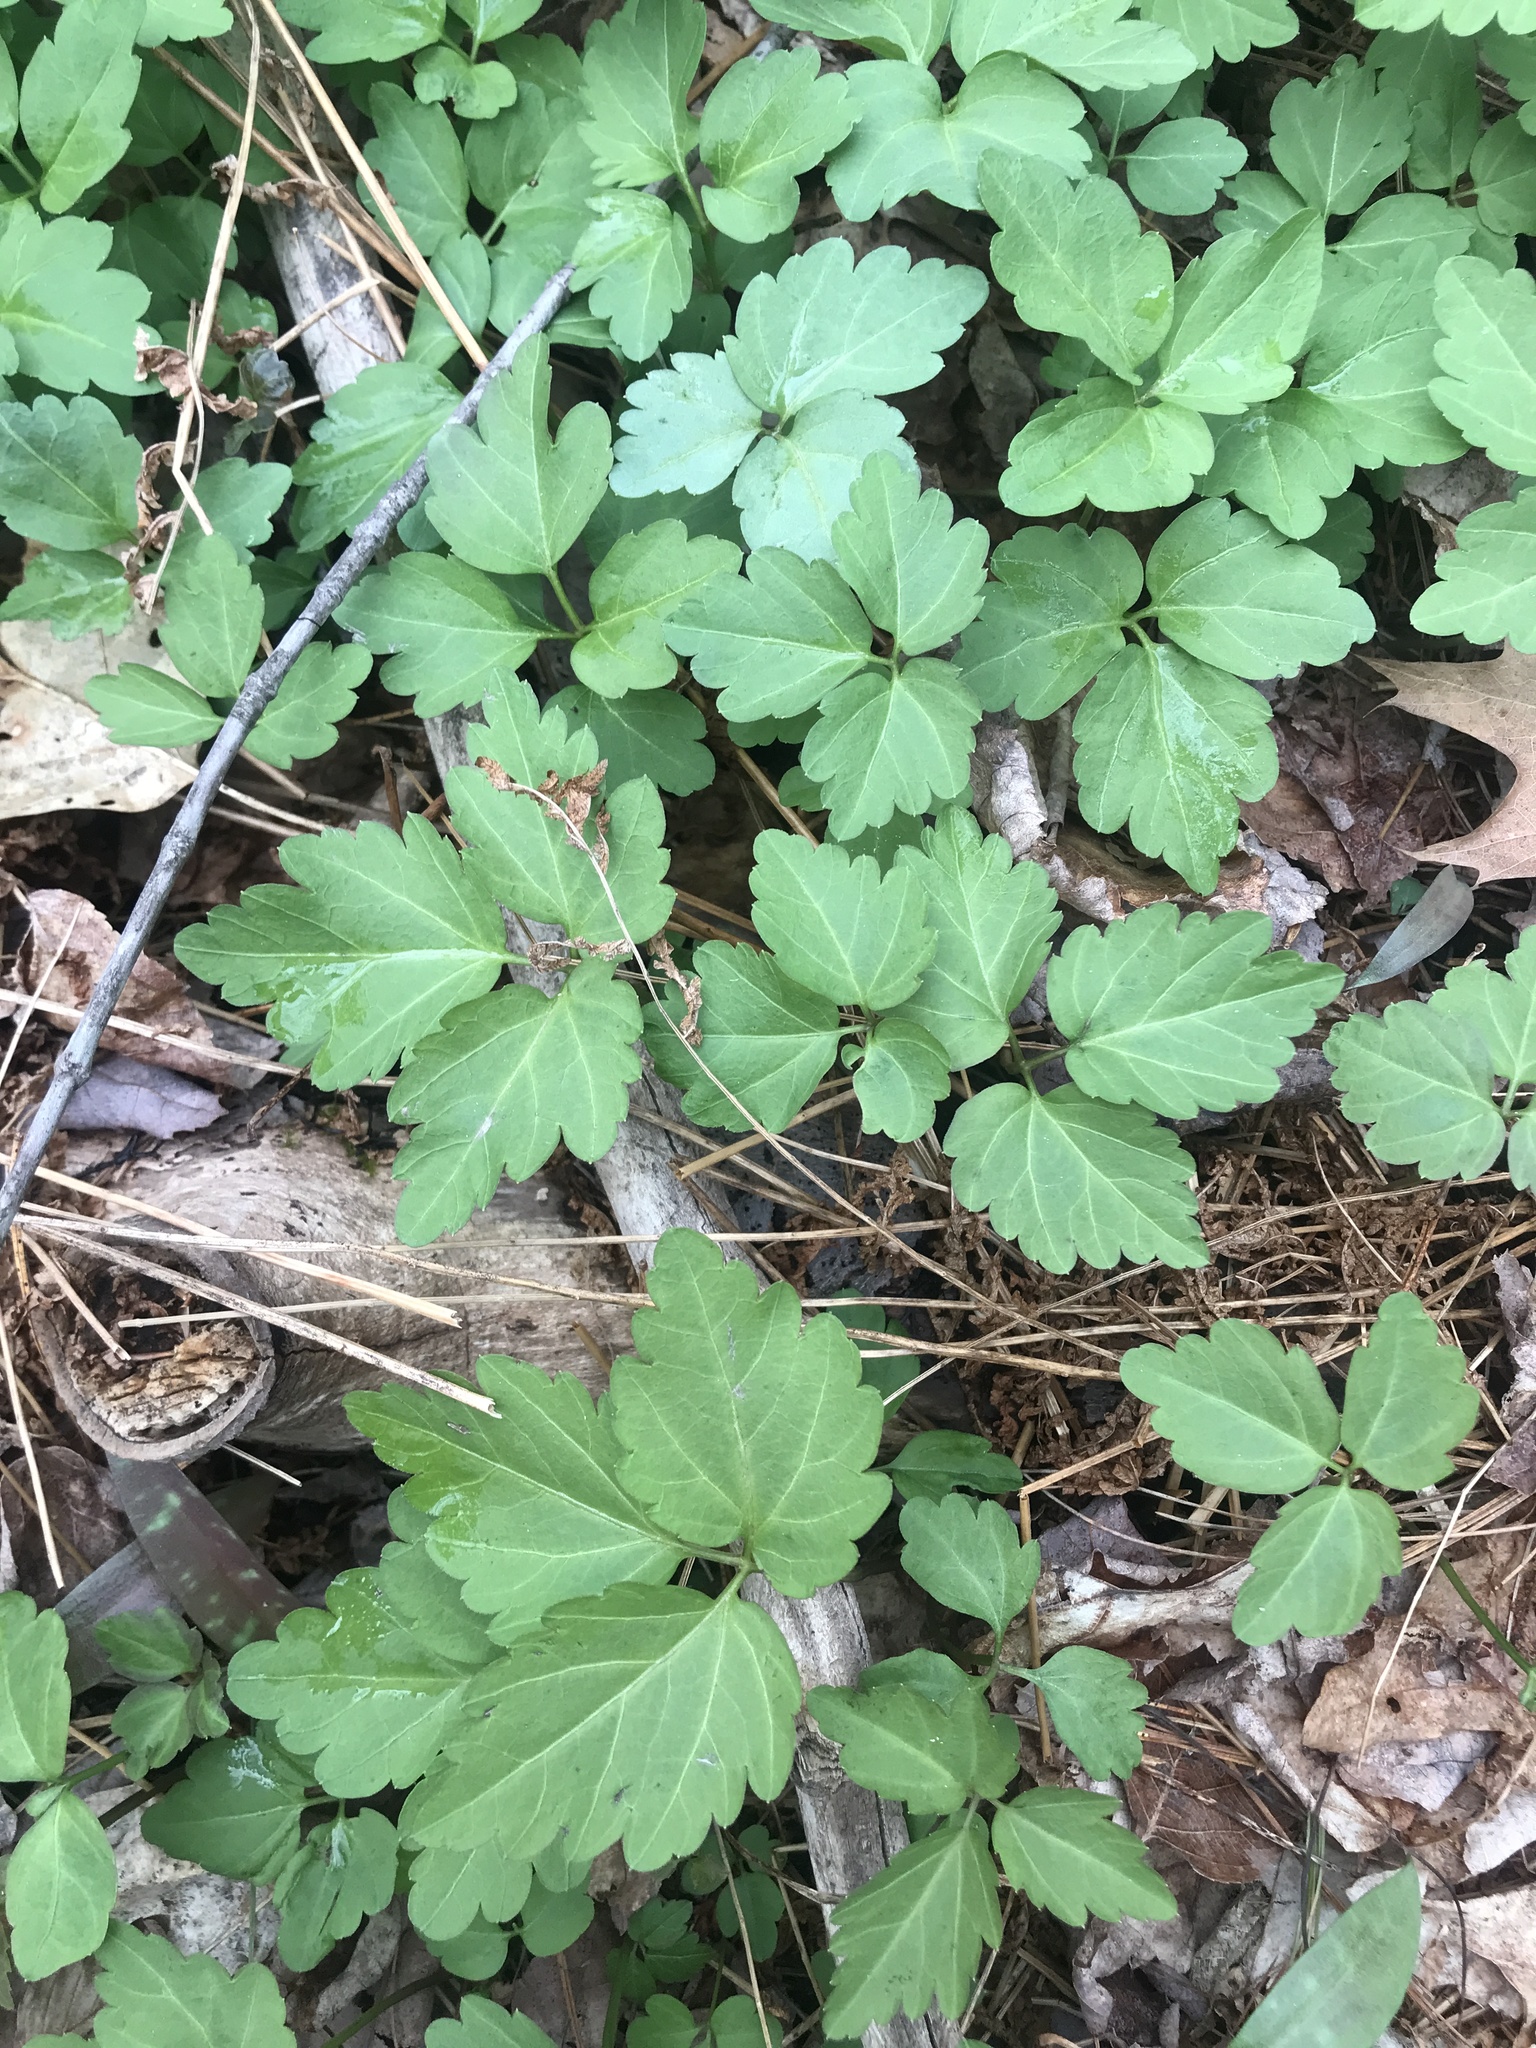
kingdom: Plantae
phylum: Tracheophyta
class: Magnoliopsida
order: Brassicales
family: Brassicaceae
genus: Cardamine
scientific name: Cardamine diphylla
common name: Broad-leaved toothwort
